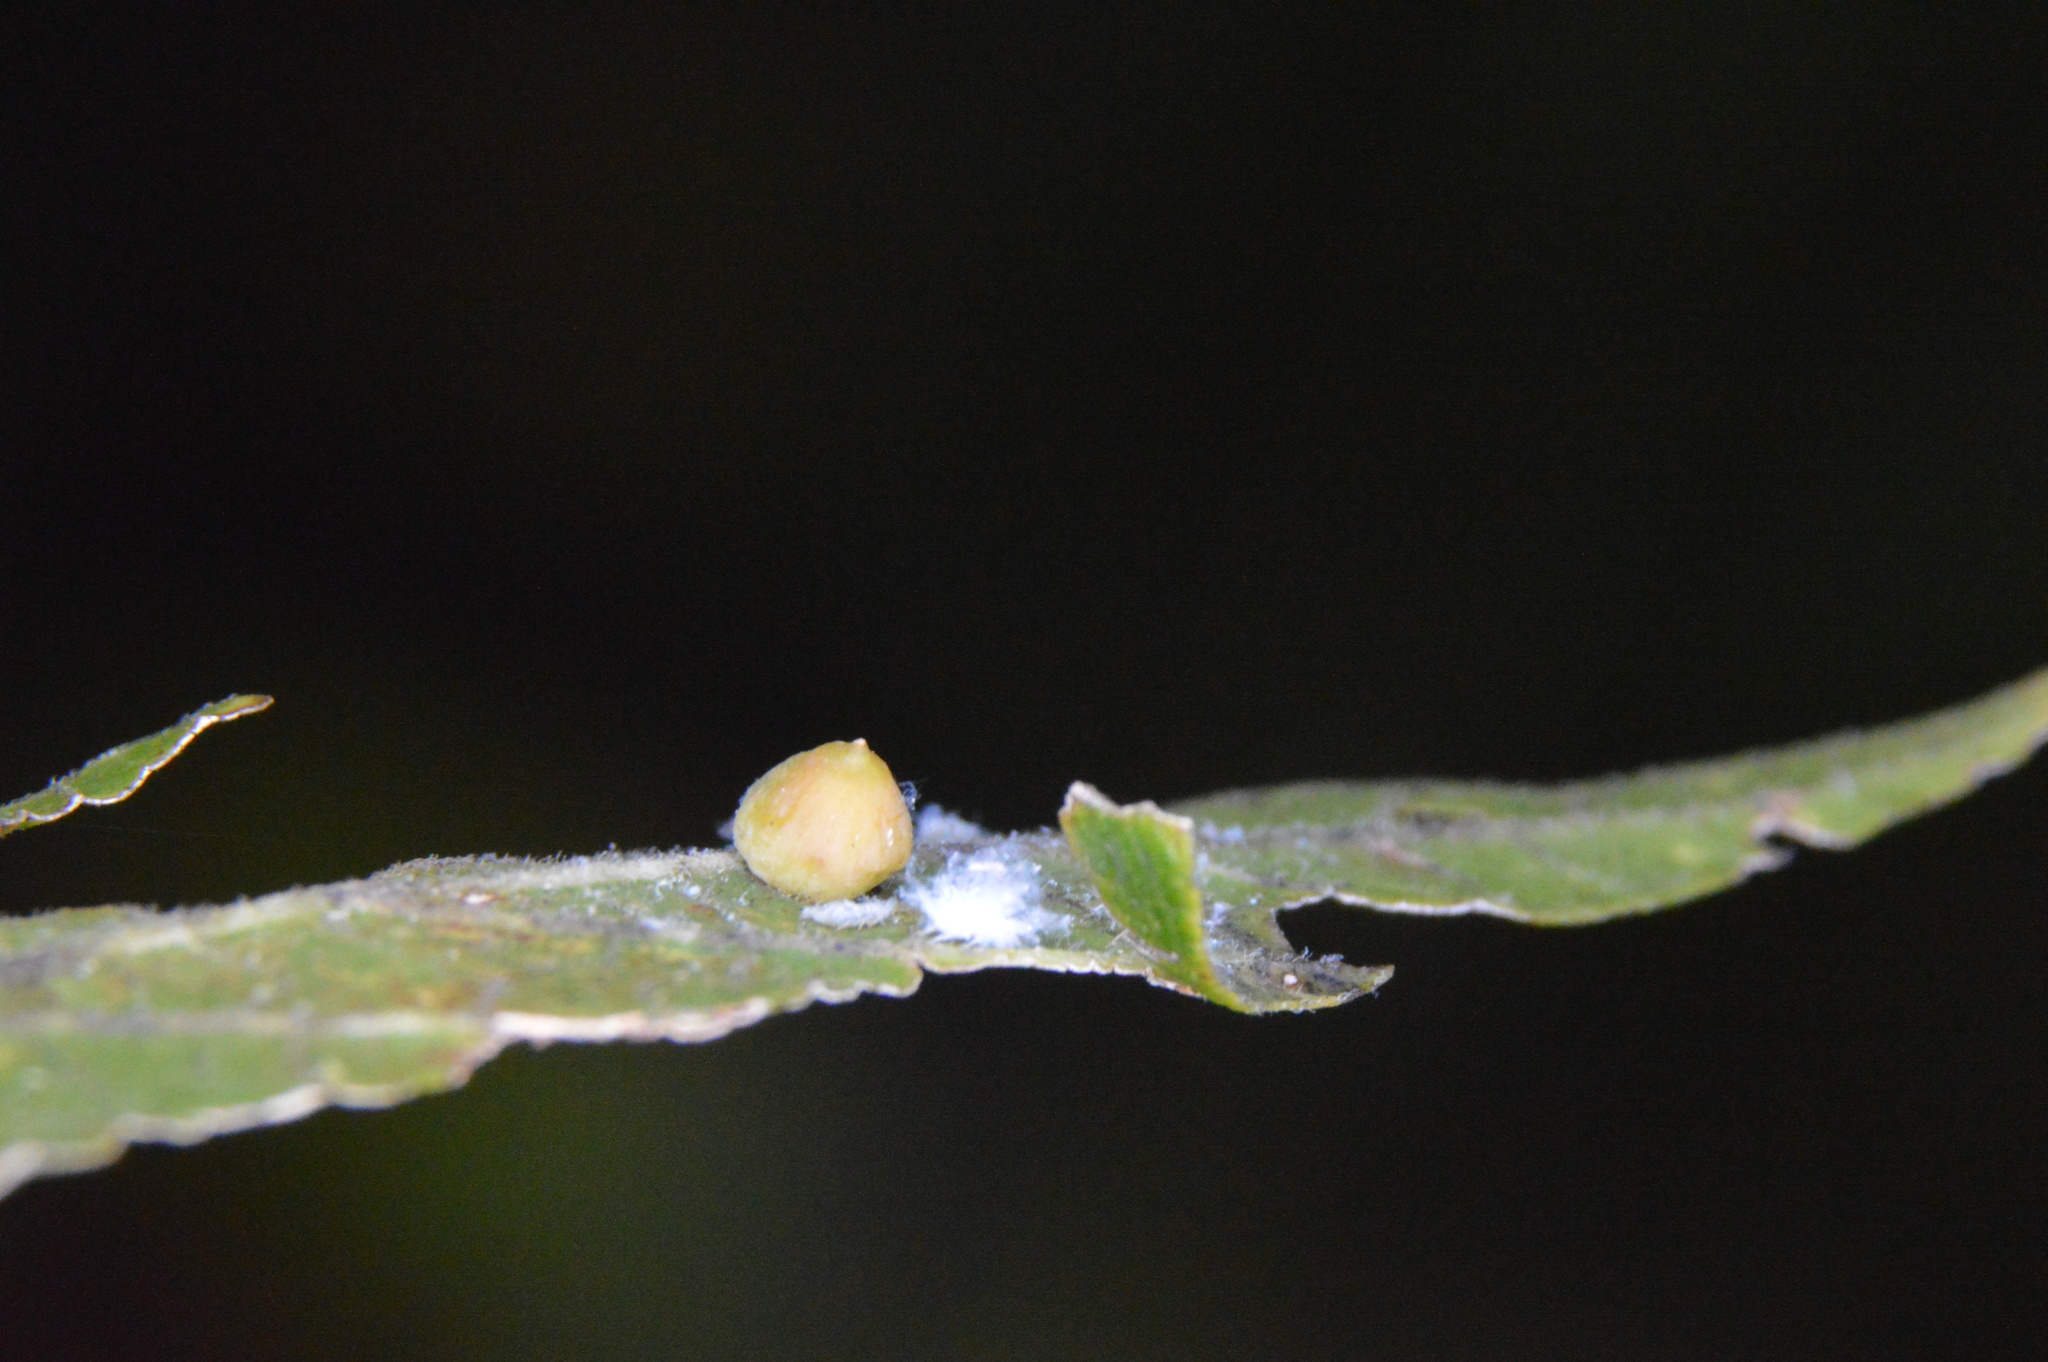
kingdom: Animalia
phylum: Arthropoda
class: Insecta
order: Diptera
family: Cecidomyiidae
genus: Celticecis
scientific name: Celticecis globosa
